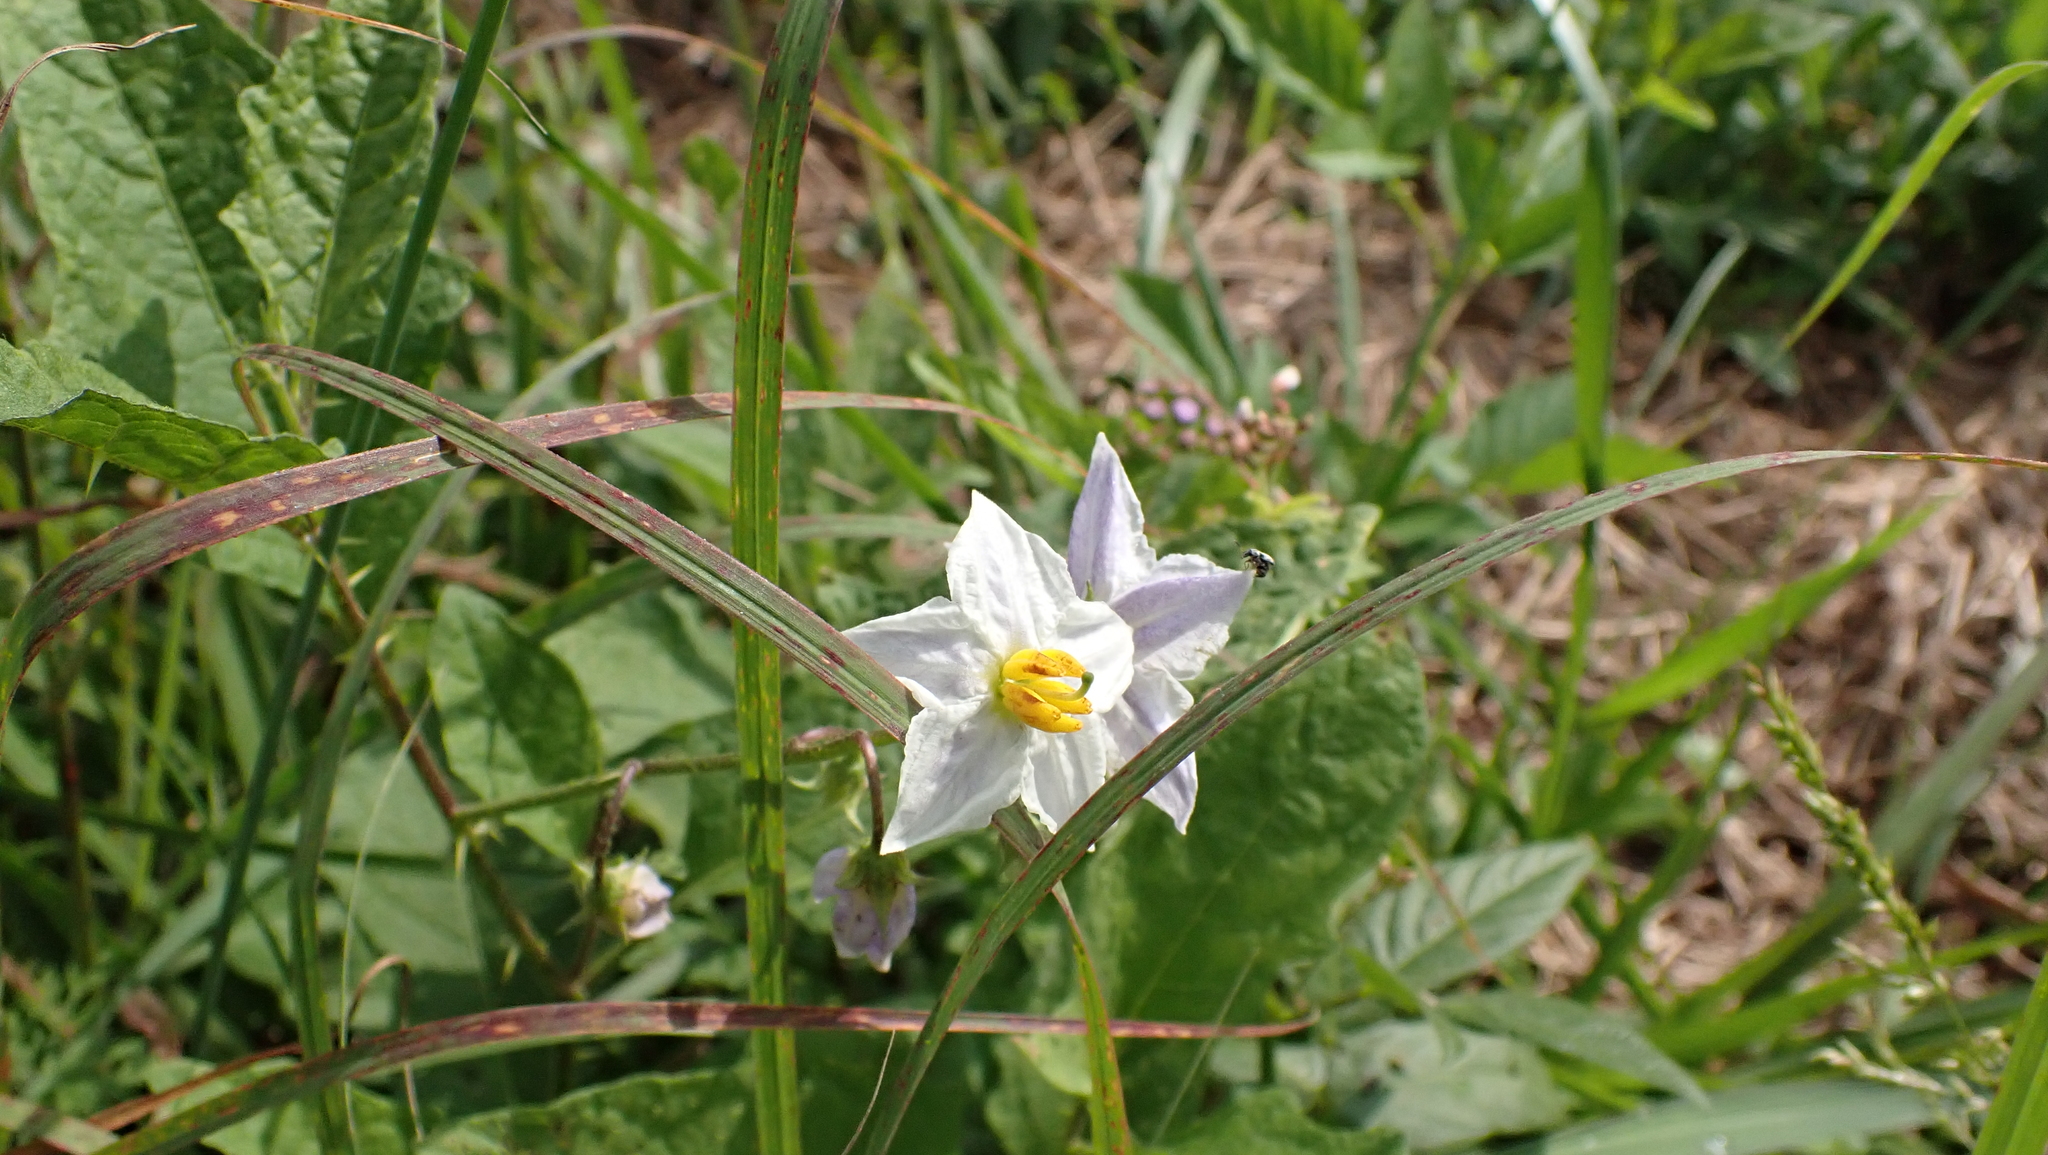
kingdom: Plantae
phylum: Tracheophyta
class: Magnoliopsida
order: Solanales
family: Solanaceae
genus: Solanum
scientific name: Solanum carolinense
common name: Horse-nettle
